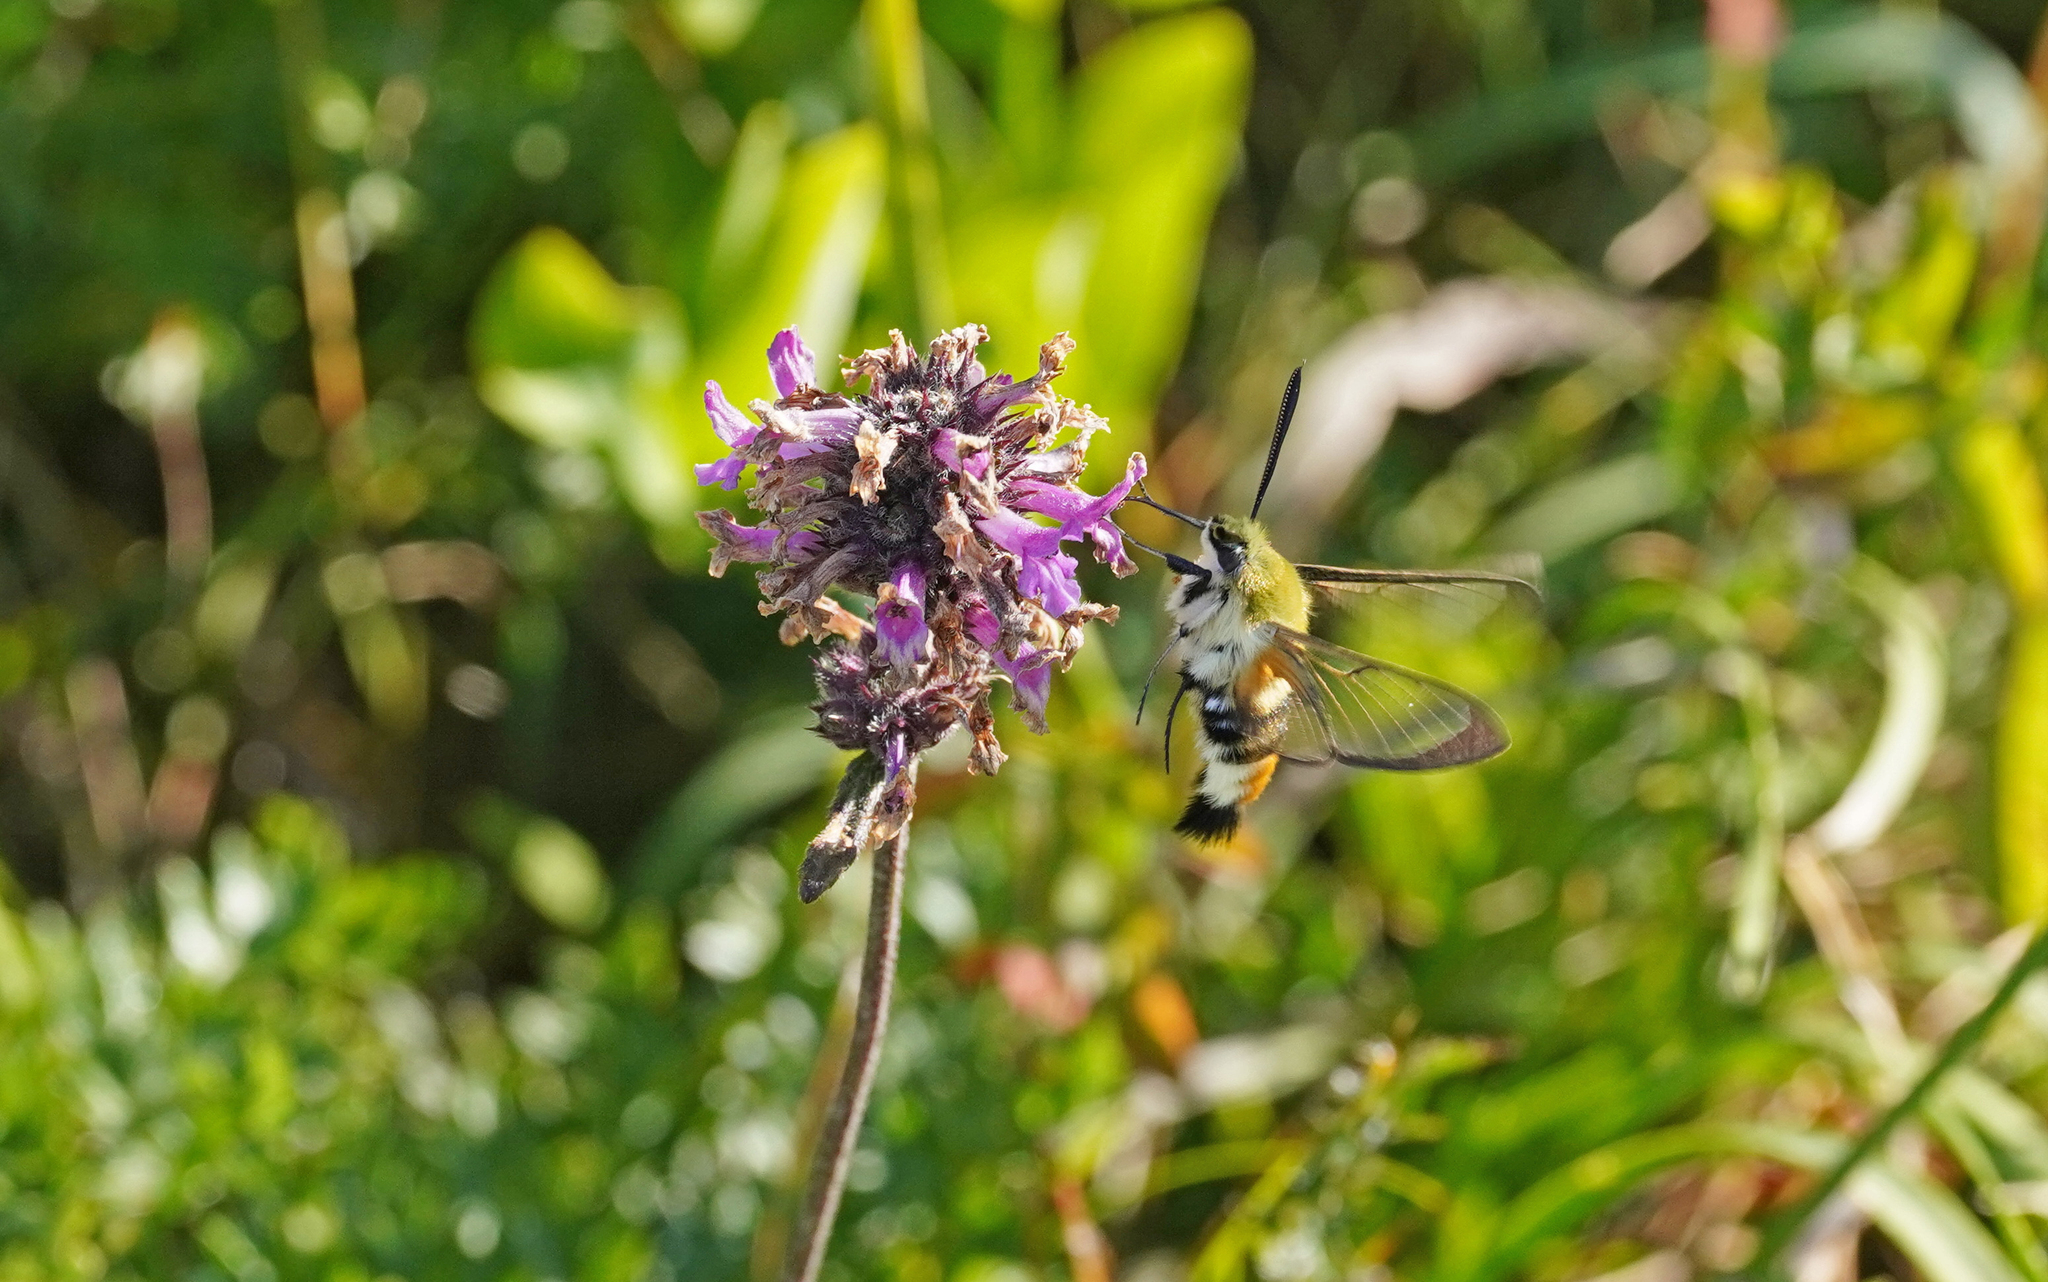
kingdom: Animalia
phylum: Arthropoda
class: Insecta
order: Lepidoptera
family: Sphingidae
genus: Hemaris
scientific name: Hemaris tityus
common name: Narrow-bordered bee hawk-moth
